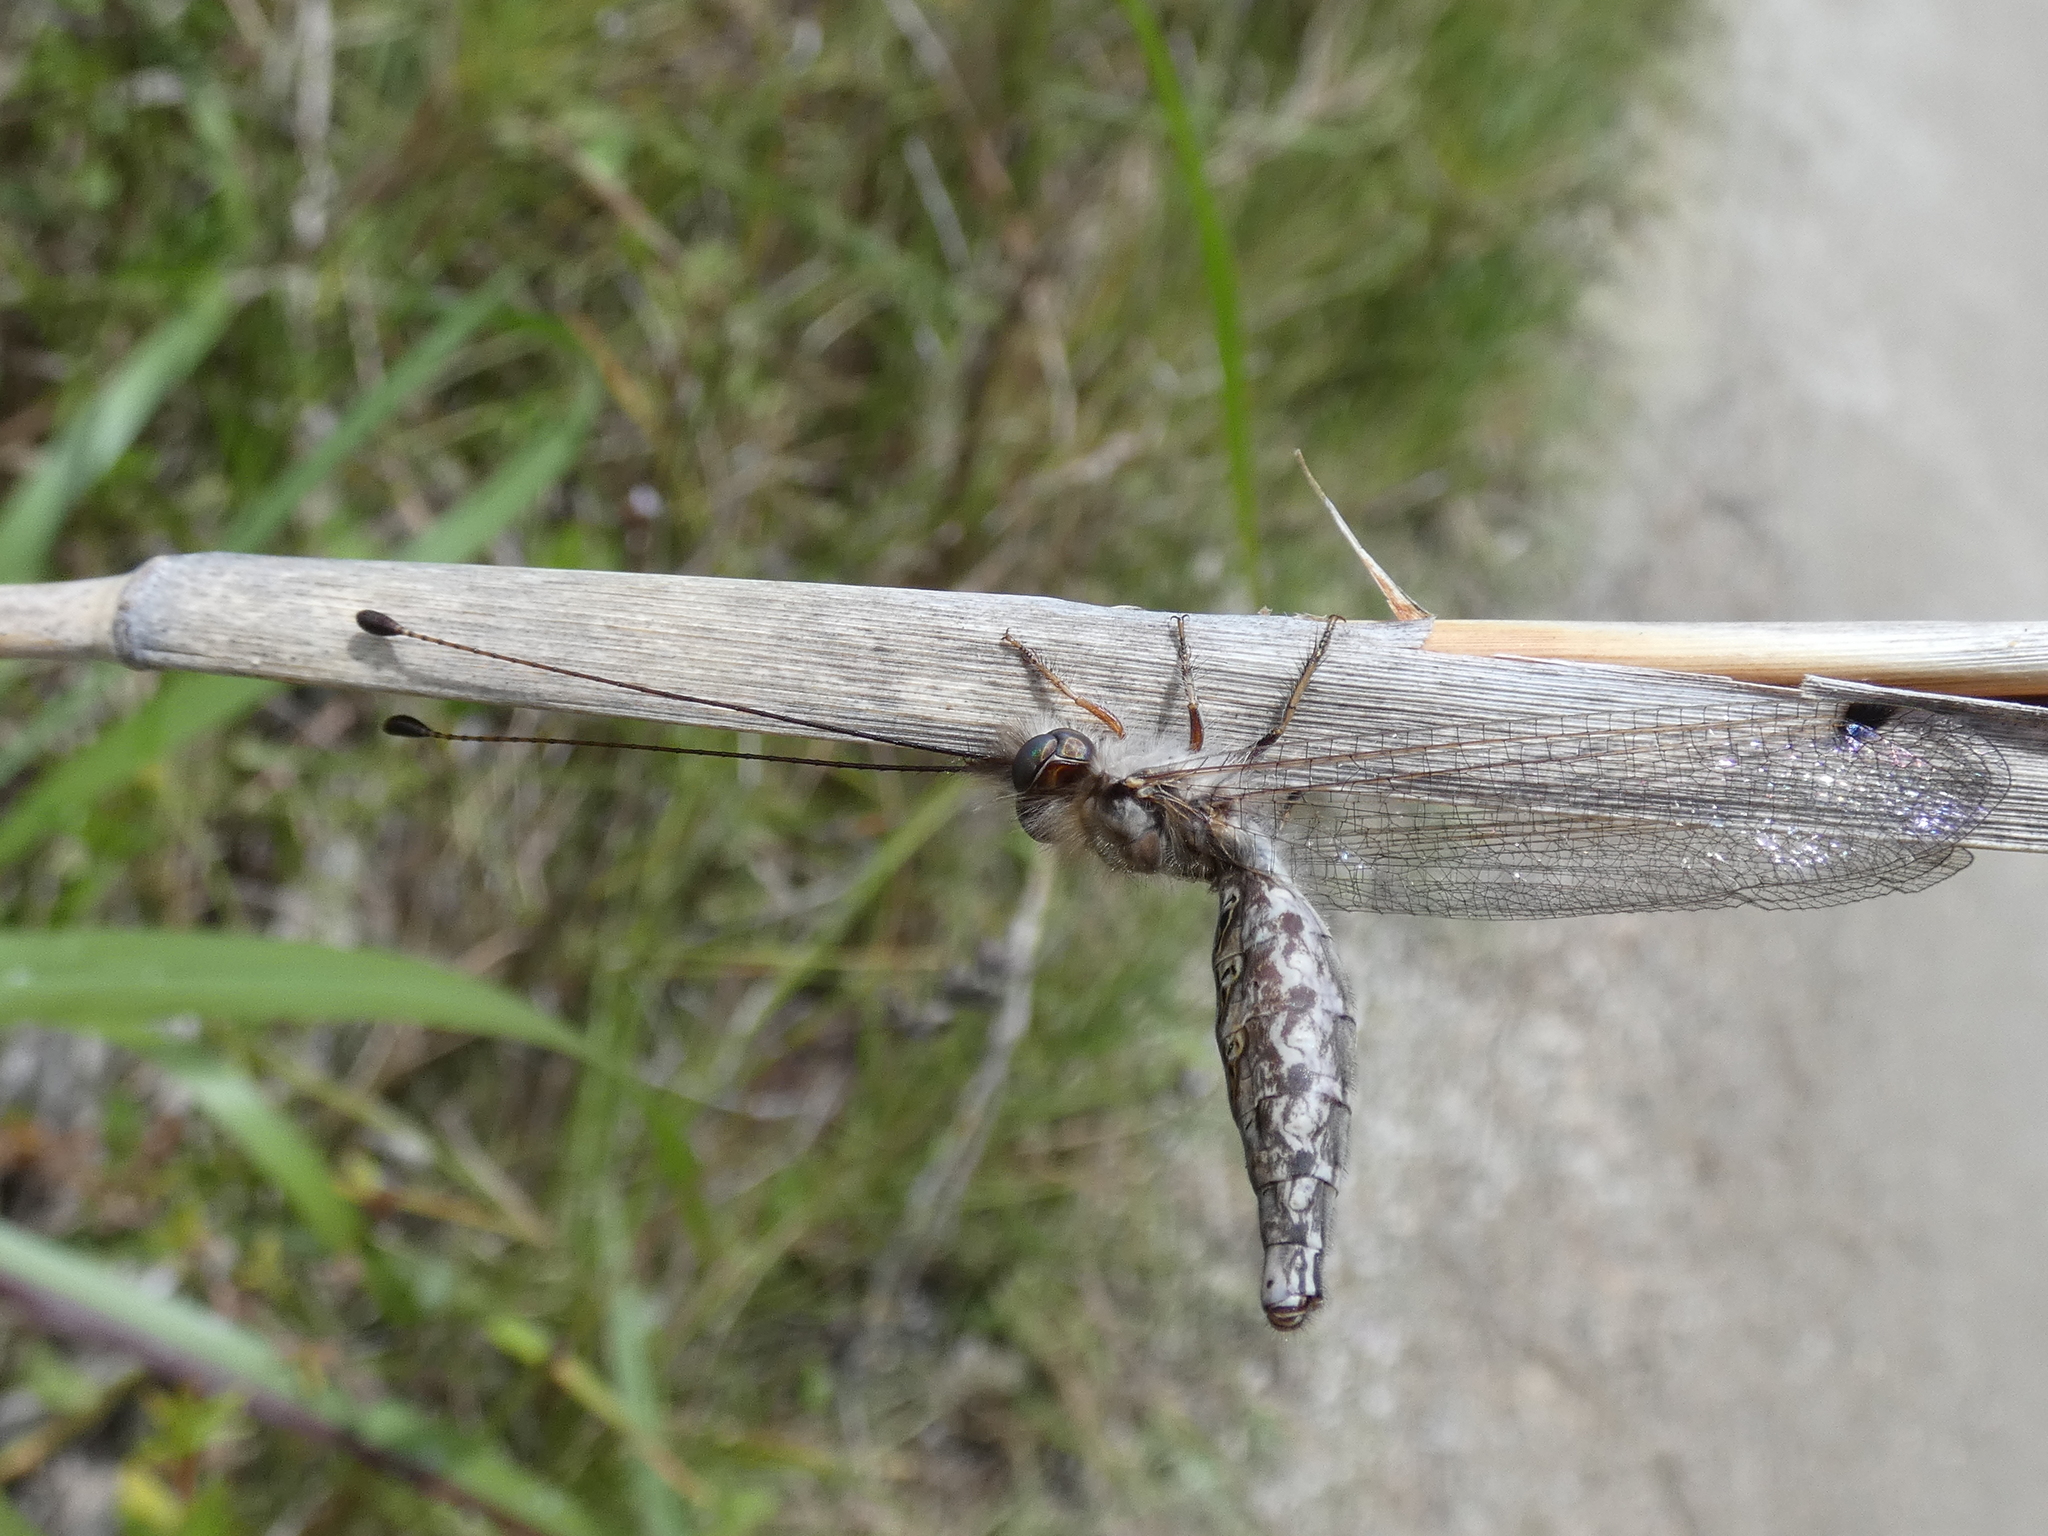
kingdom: Animalia
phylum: Arthropoda
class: Insecta
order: Neuroptera
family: Ascalaphidae
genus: Ululodes
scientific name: Ululodes macleayanus
